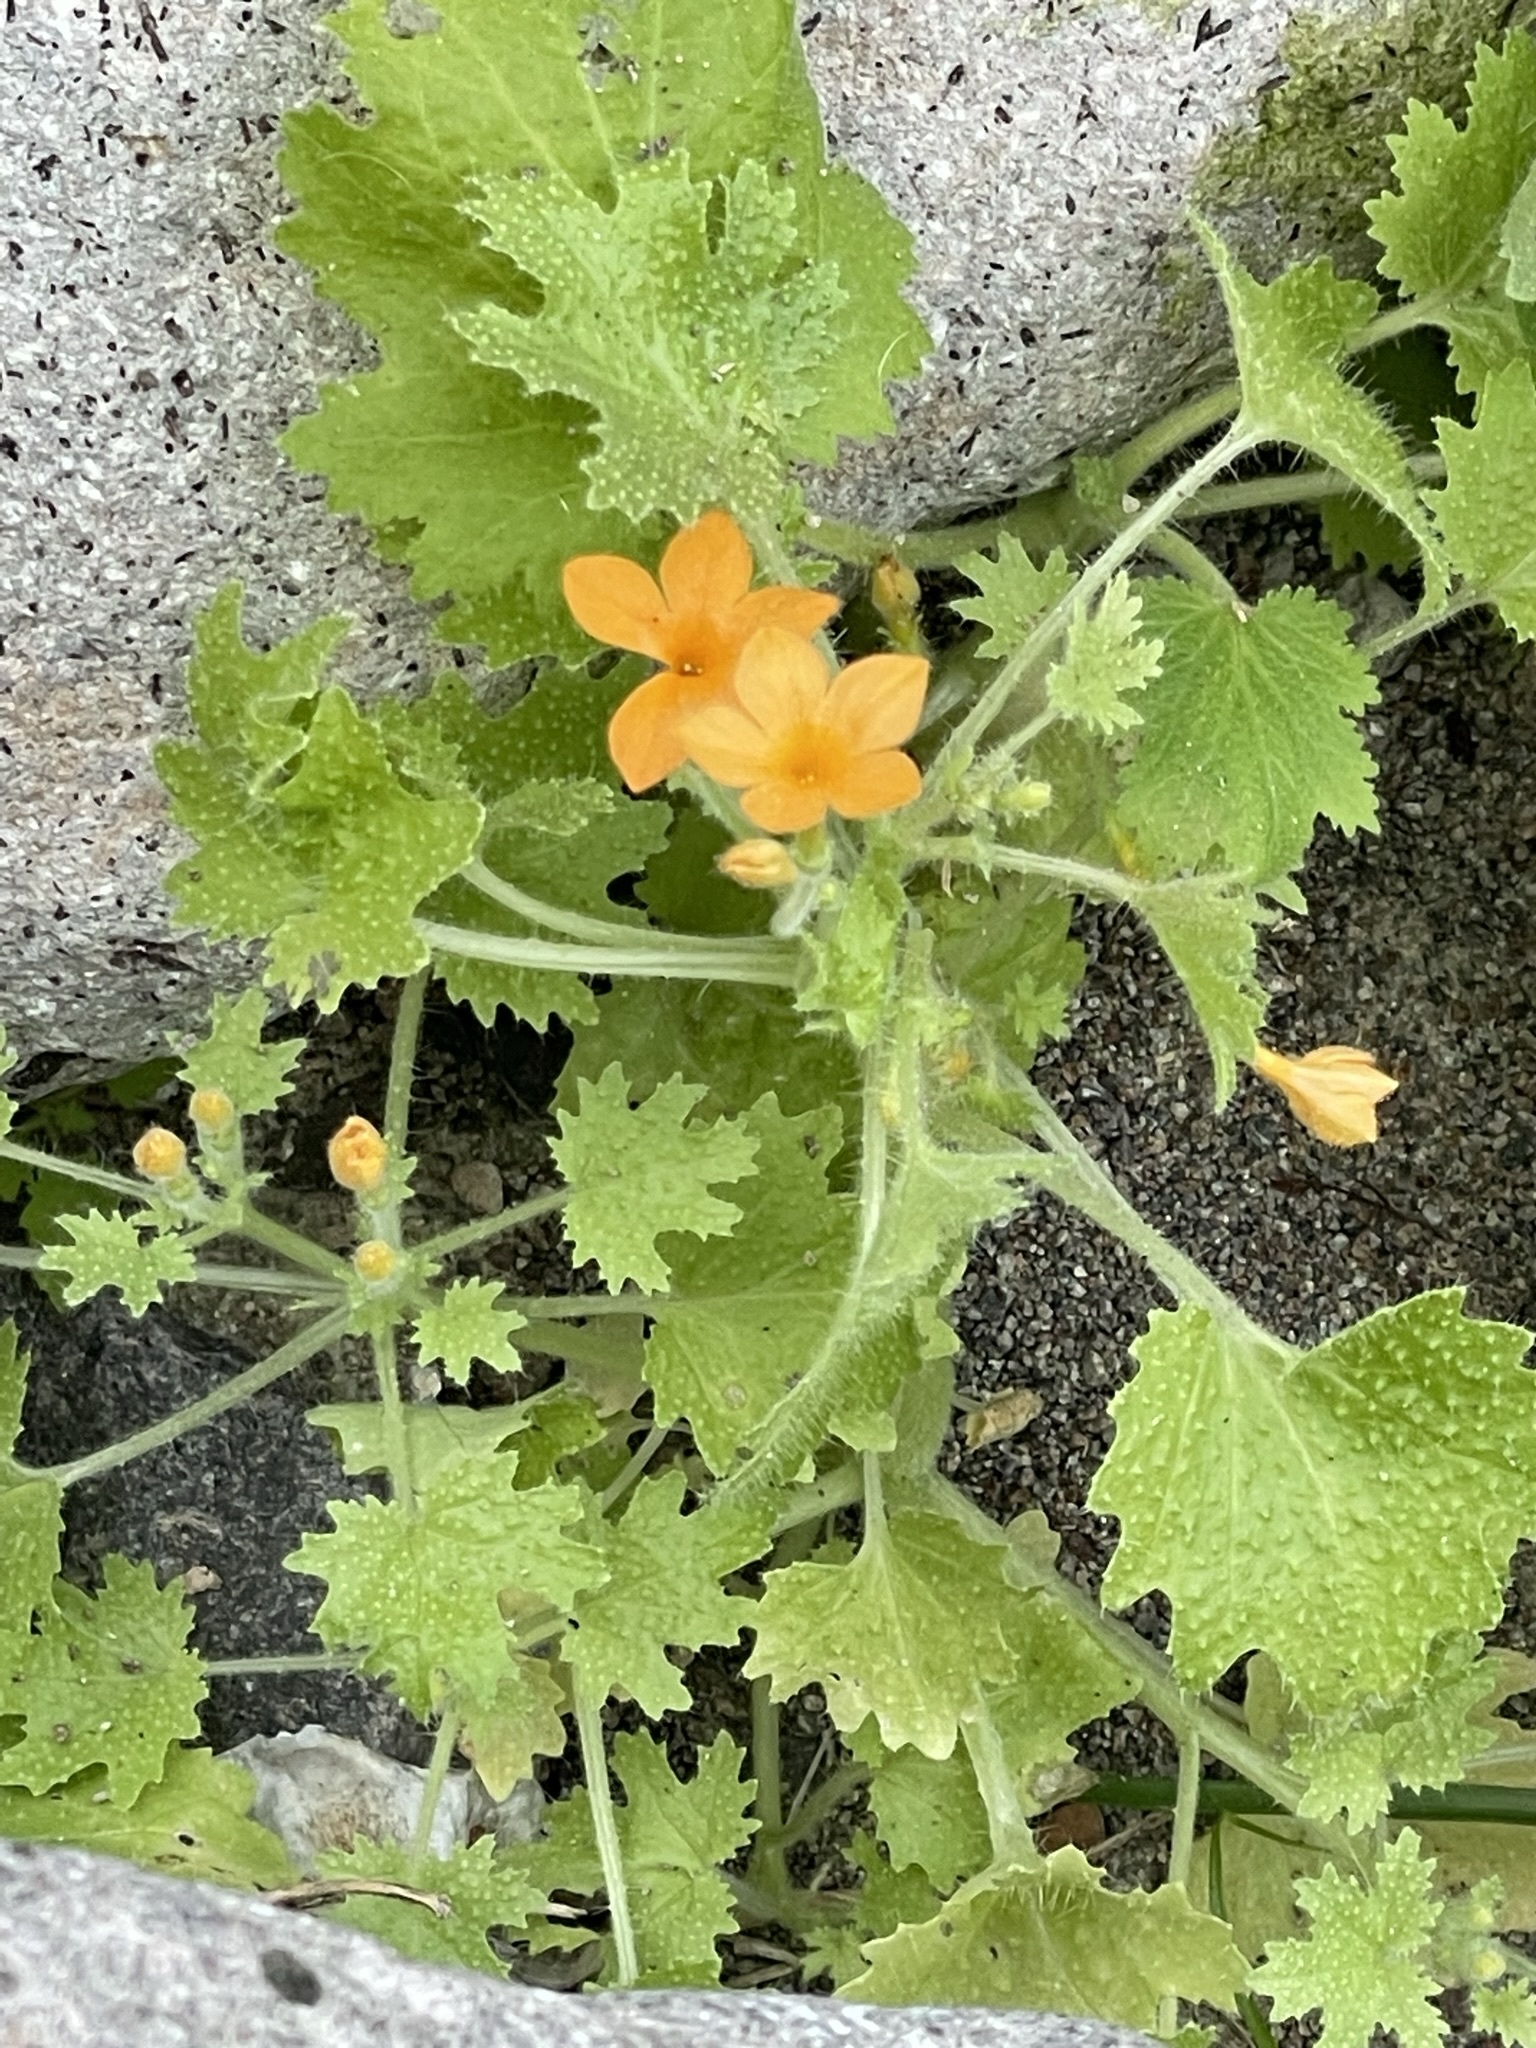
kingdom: Plantae
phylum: Tracheophyta
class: Magnoliopsida
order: Cornales
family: Loasaceae
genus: Eucnide
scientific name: Eucnide aurea
